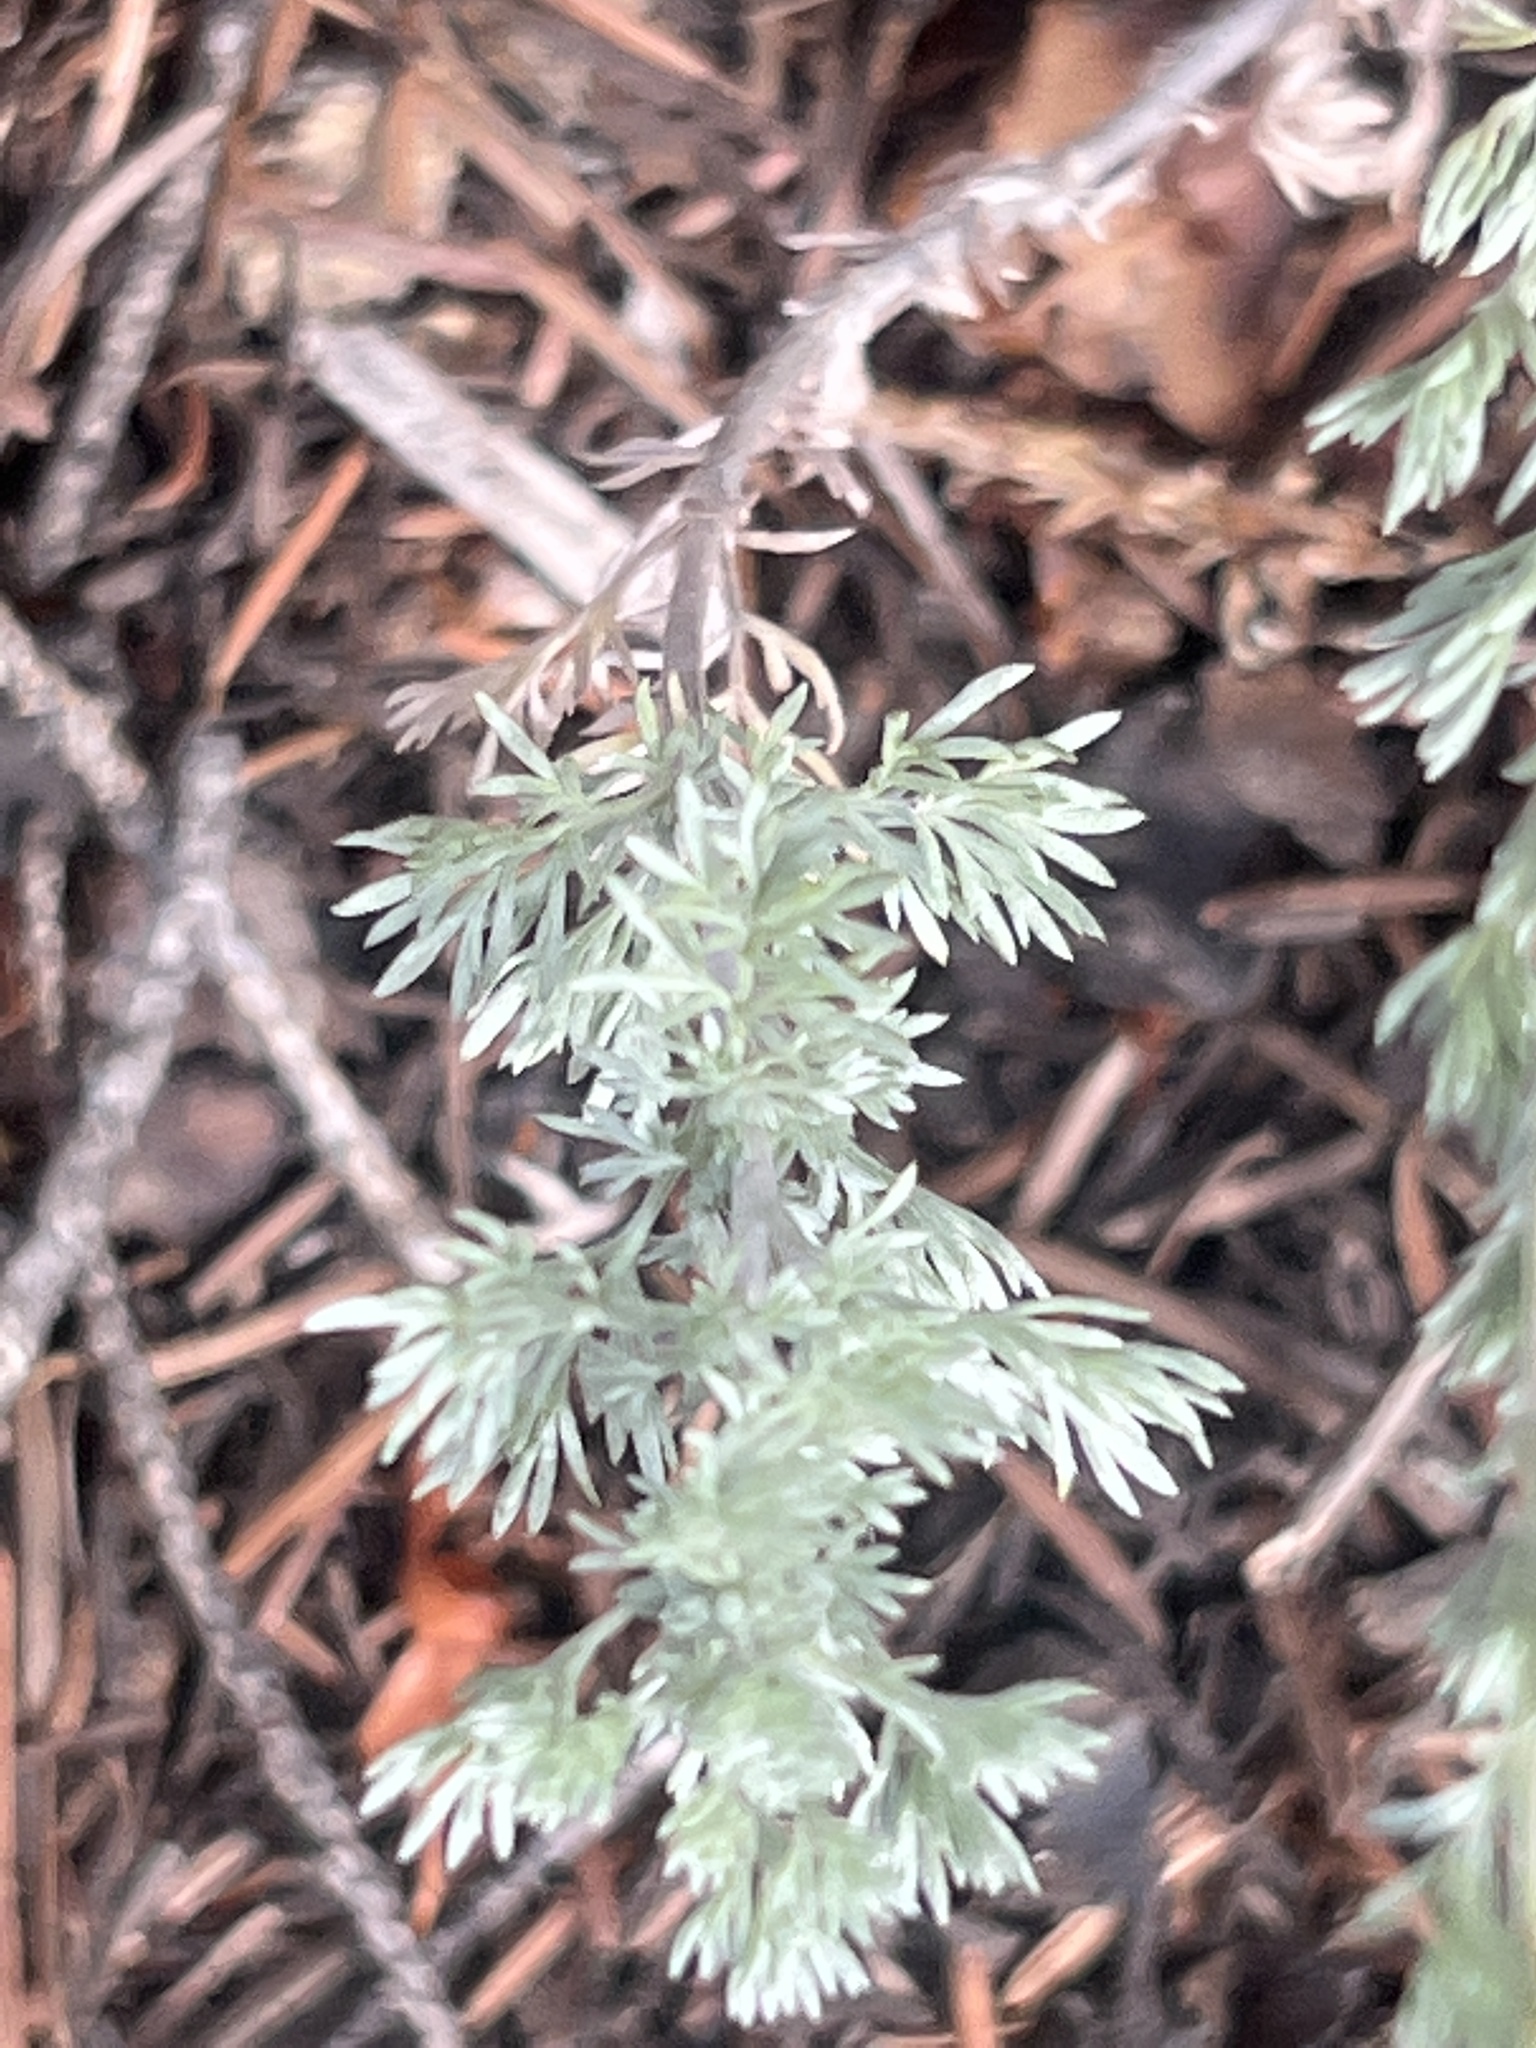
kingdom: Plantae
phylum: Tracheophyta
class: Magnoliopsida
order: Asterales
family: Asteraceae
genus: Artemisia
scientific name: Artemisia frigida
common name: Prairie sagewort
